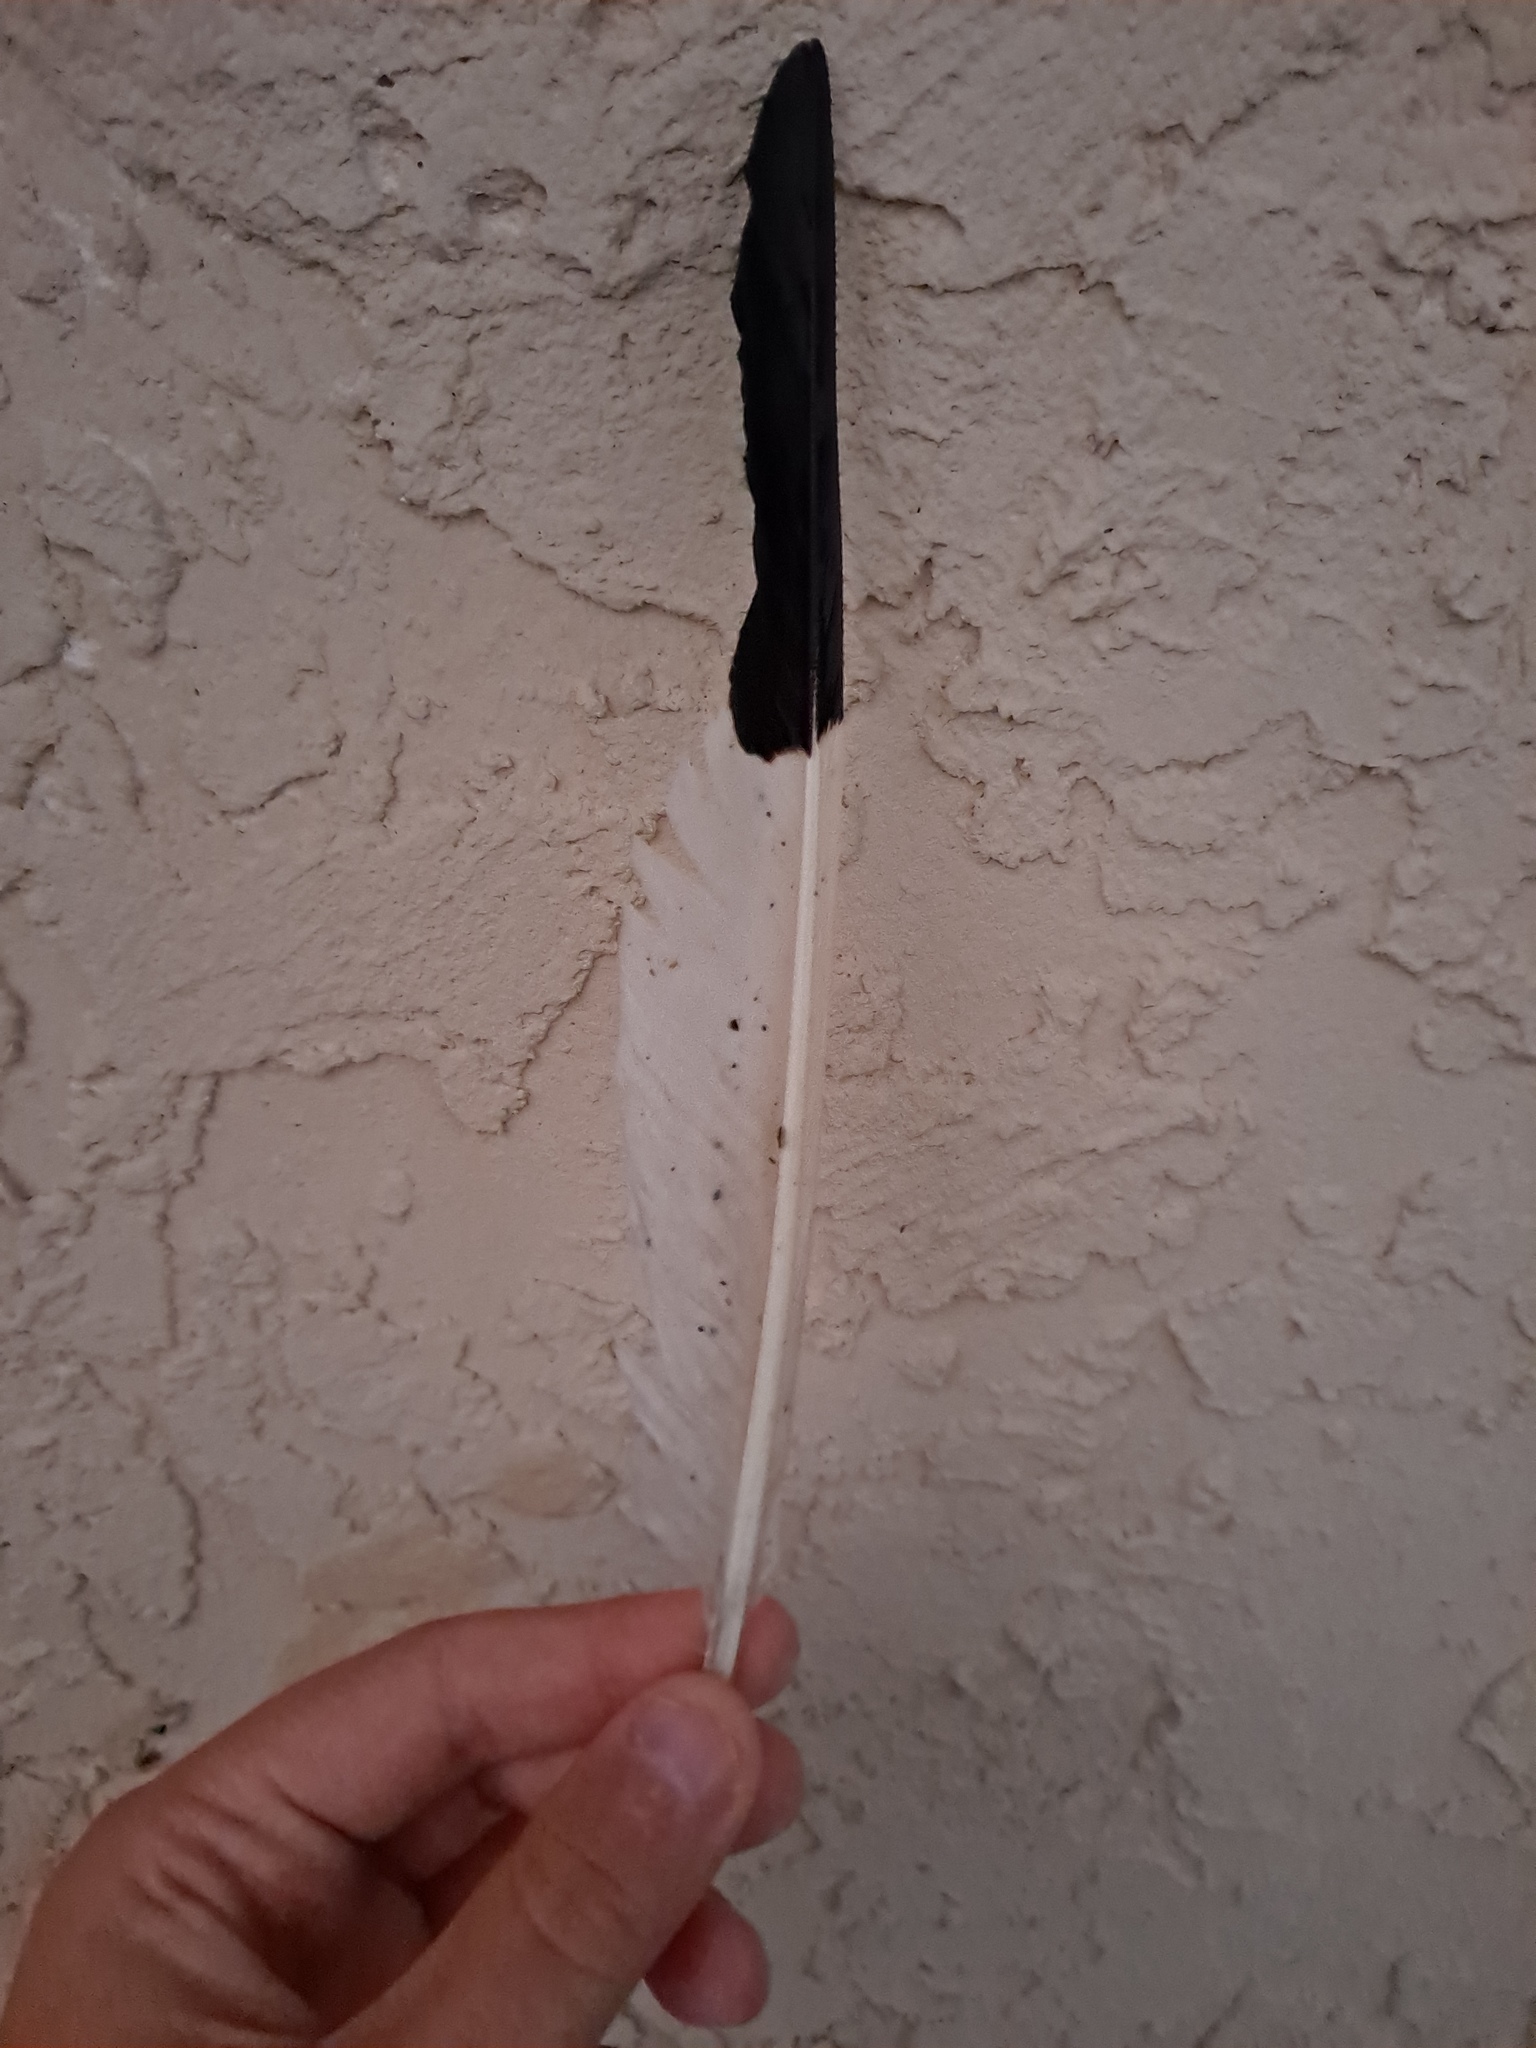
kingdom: Animalia
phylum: Chordata
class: Aves
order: Pelecaniformes
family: Threskiornithidae
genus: Eudocimus
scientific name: Eudocimus albus
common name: White ibis
